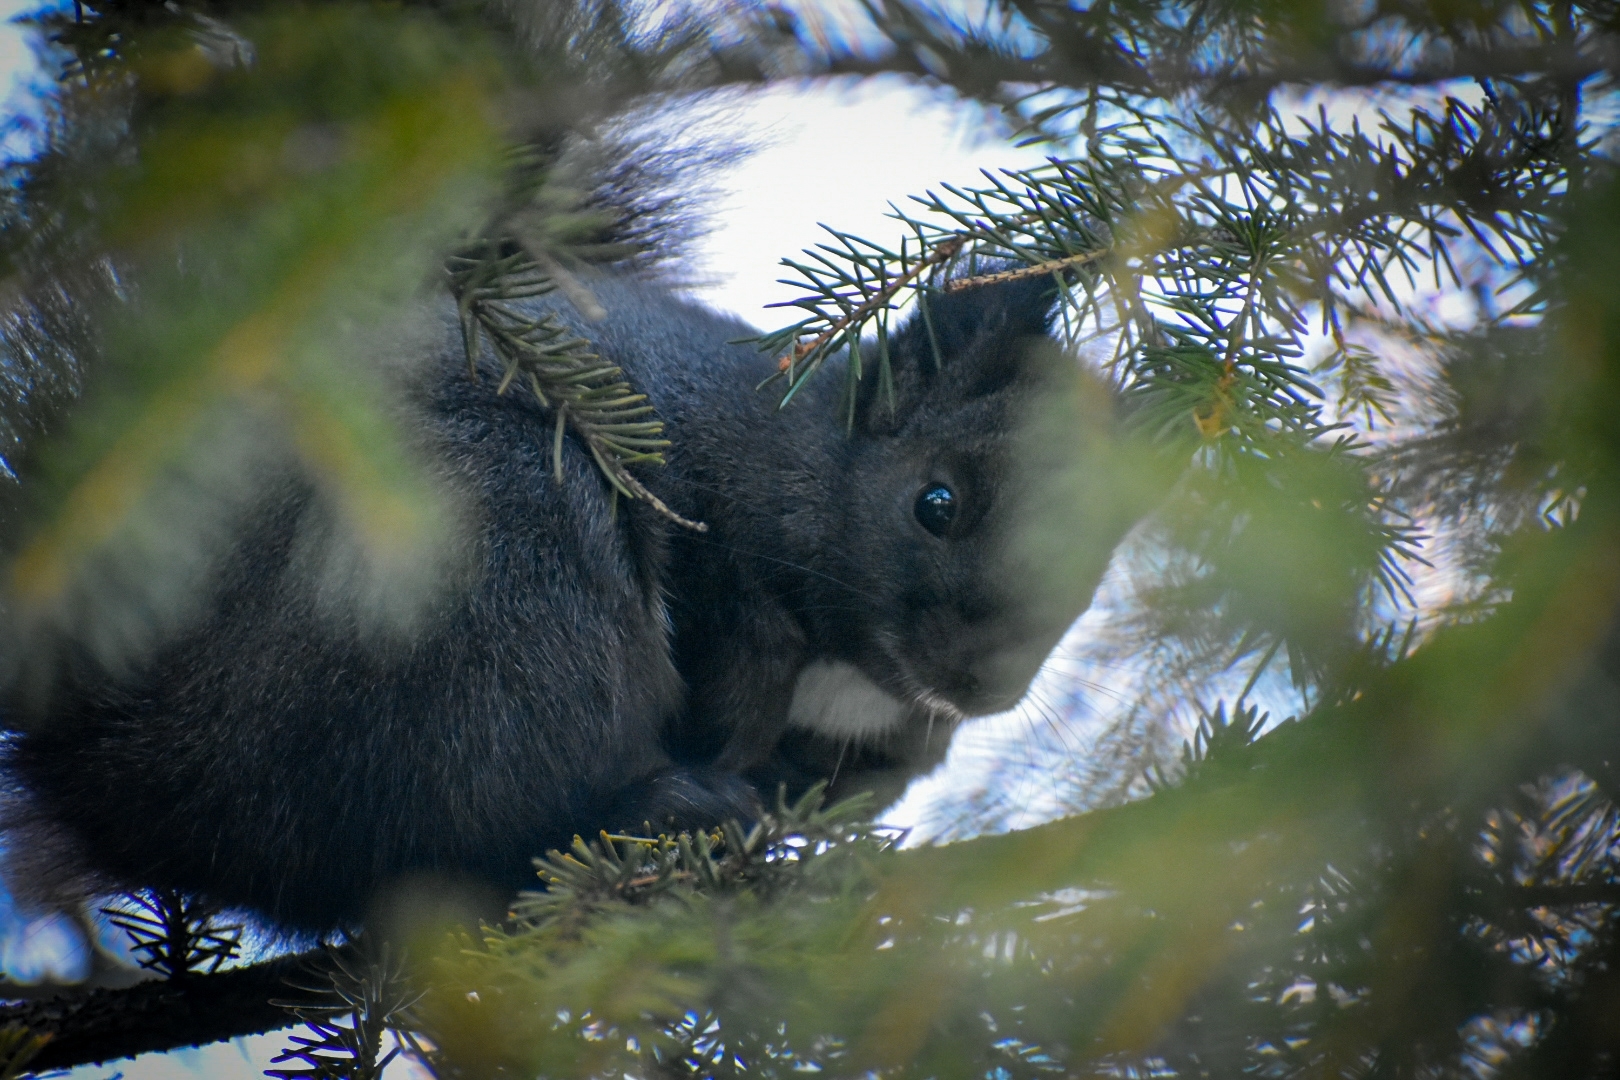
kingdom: Animalia
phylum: Chordata
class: Mammalia
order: Rodentia
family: Sciuridae
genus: Sciurus
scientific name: Sciurus vulgaris
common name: Eurasian red squirrel
